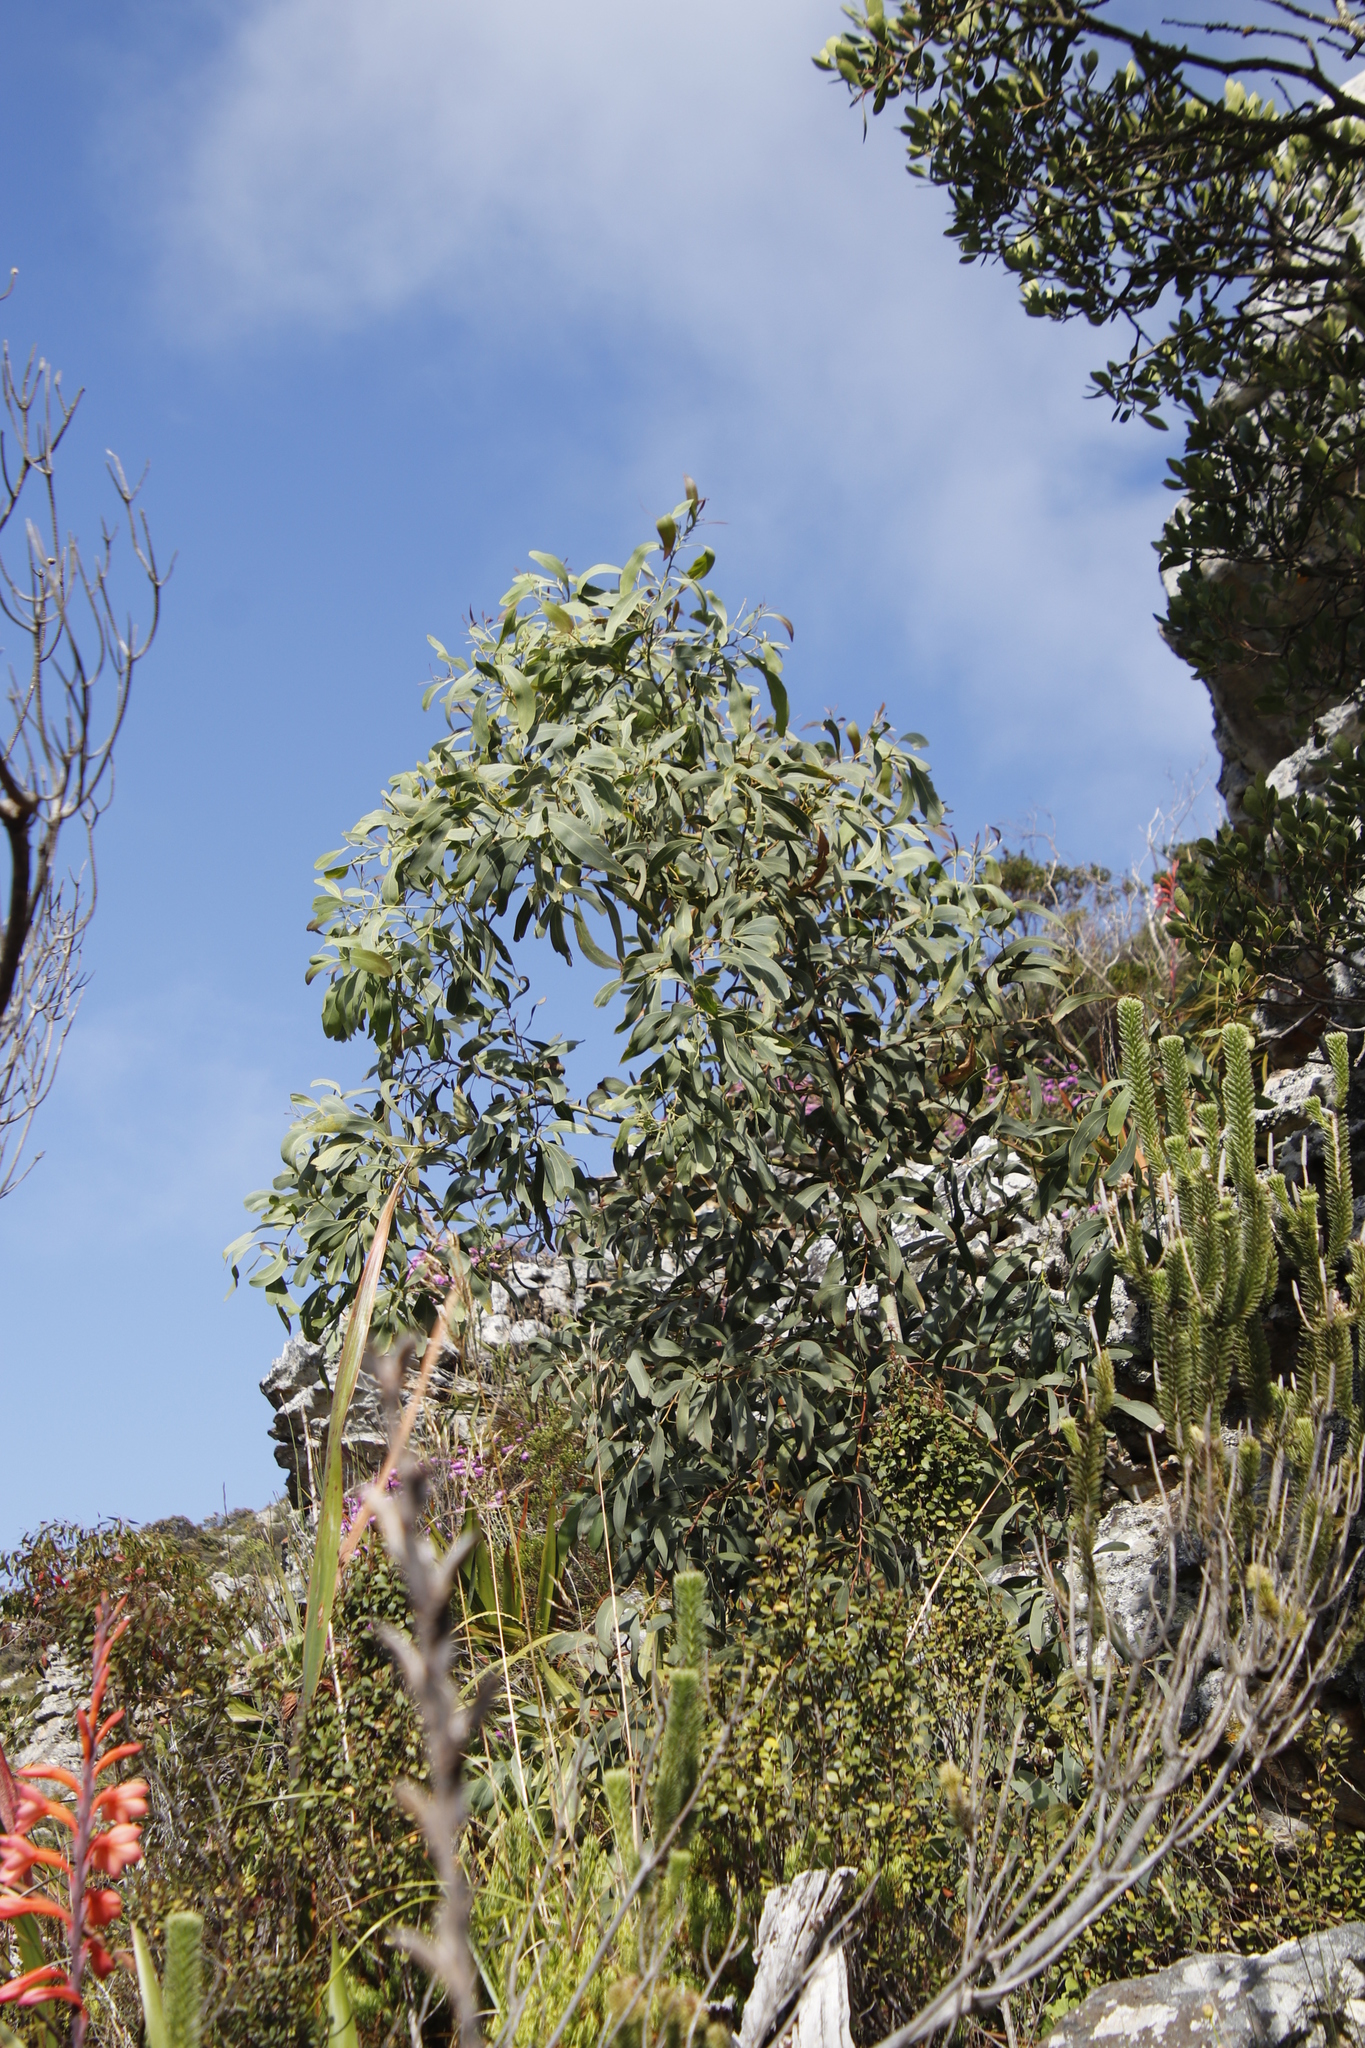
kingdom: Plantae
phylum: Tracheophyta
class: Magnoliopsida
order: Fabales
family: Fabaceae
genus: Acacia
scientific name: Acacia falciformis
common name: Tanning wattle
